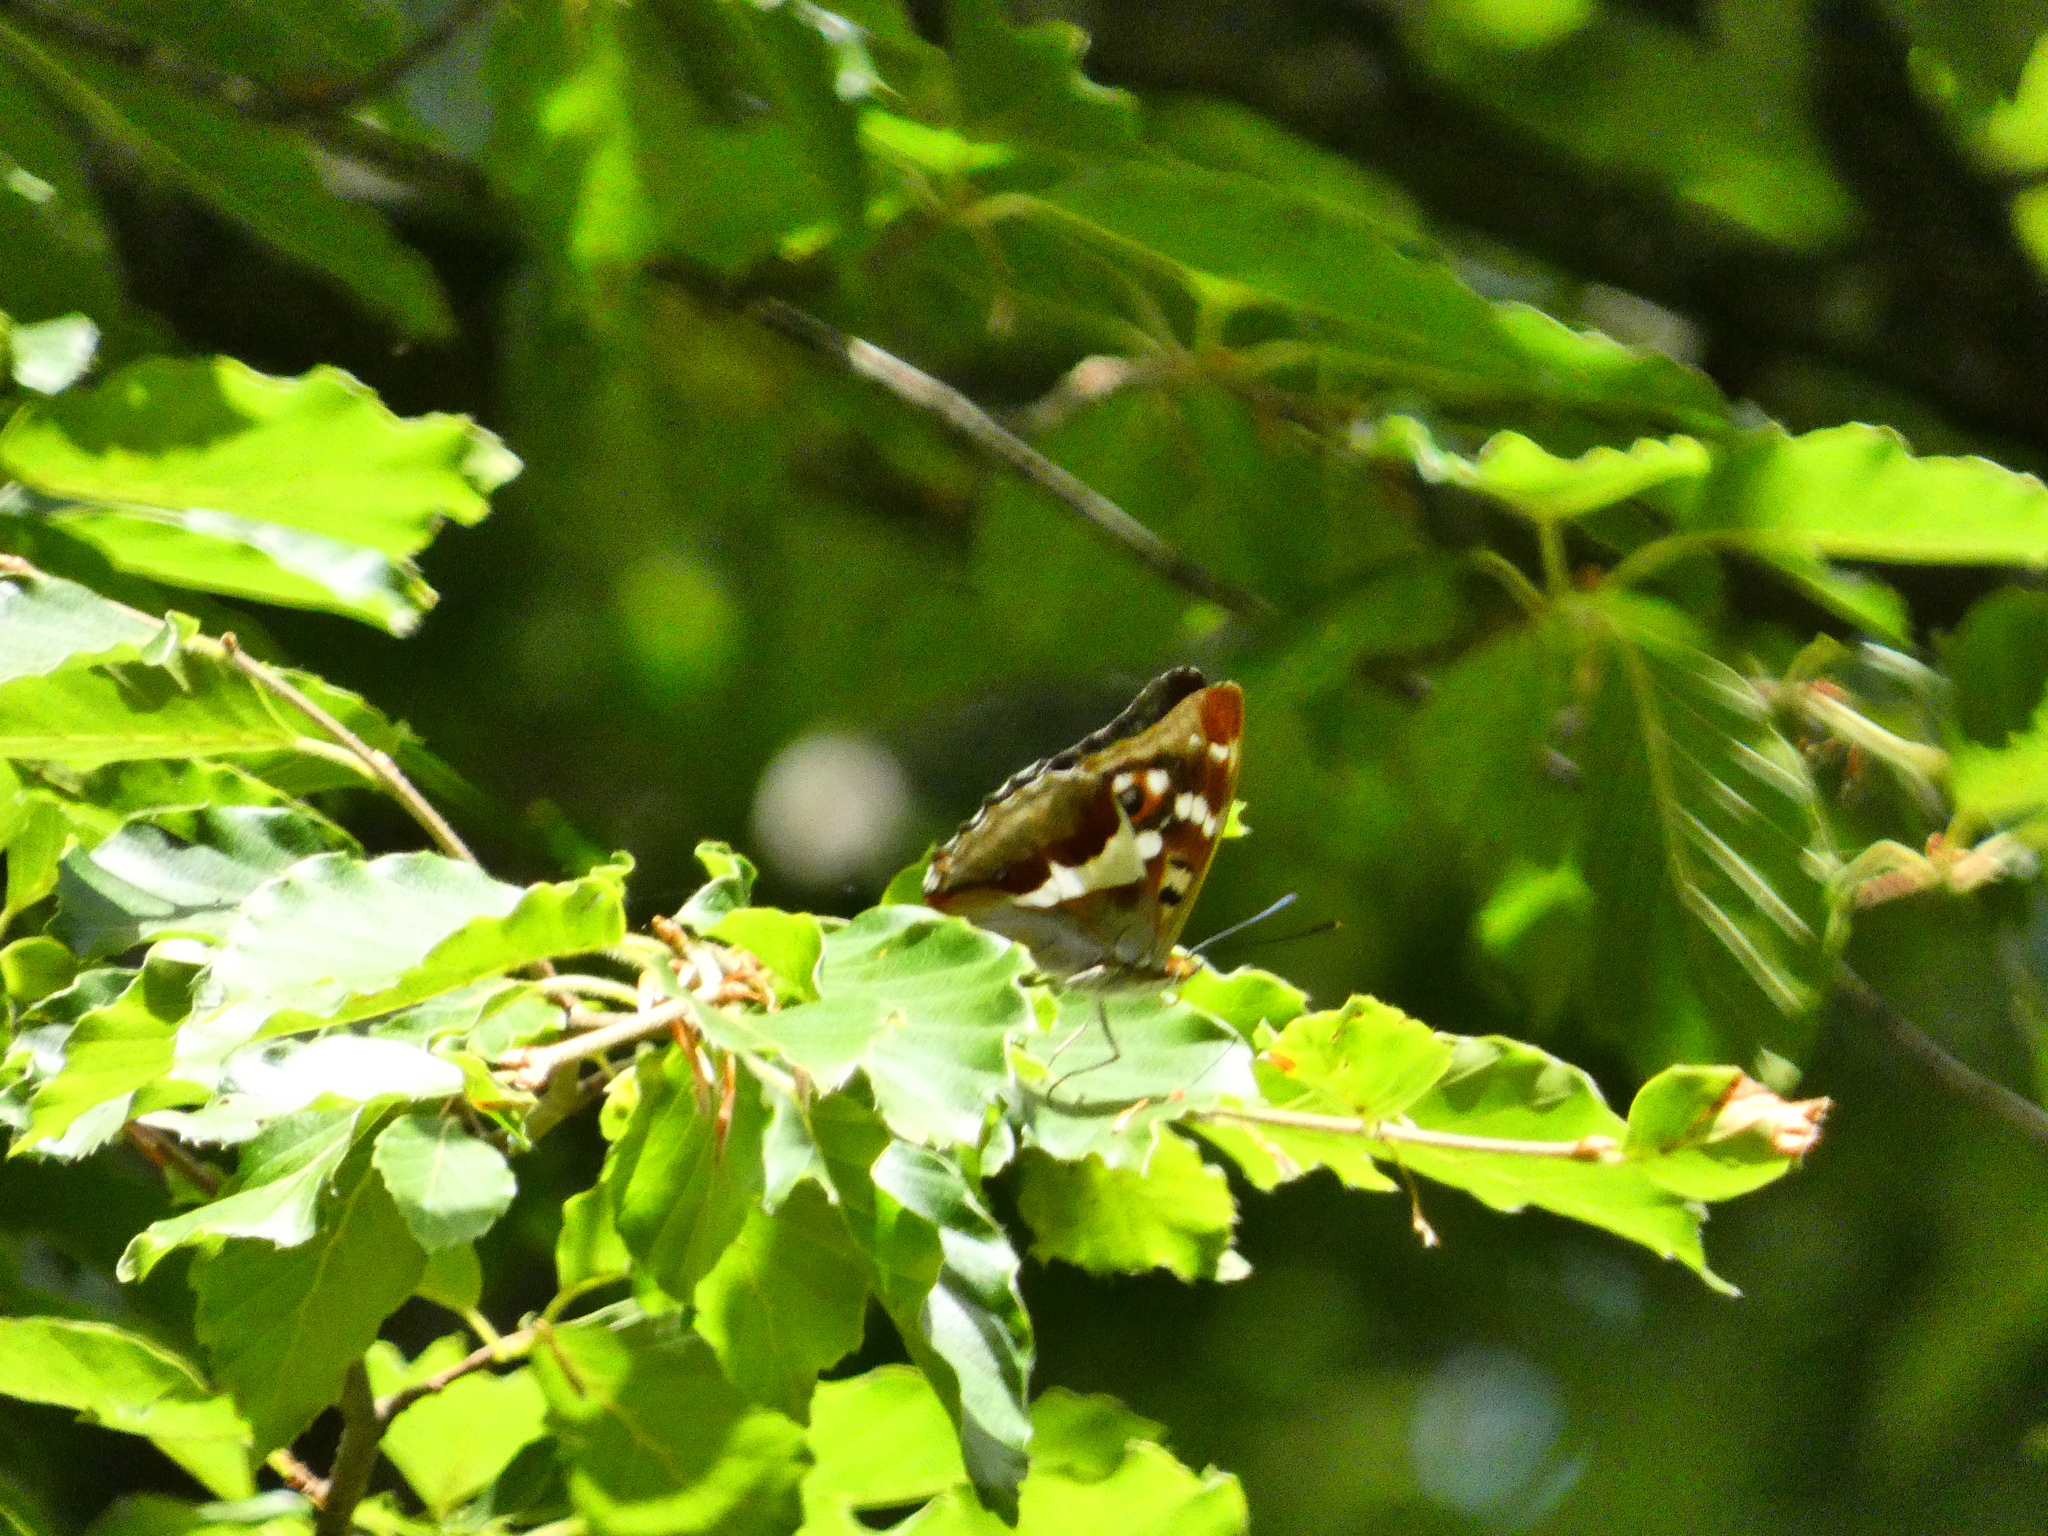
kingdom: Animalia
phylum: Arthropoda
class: Insecta
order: Lepidoptera
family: Nymphalidae
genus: Apatura
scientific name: Apatura iris
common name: Purple emperor
